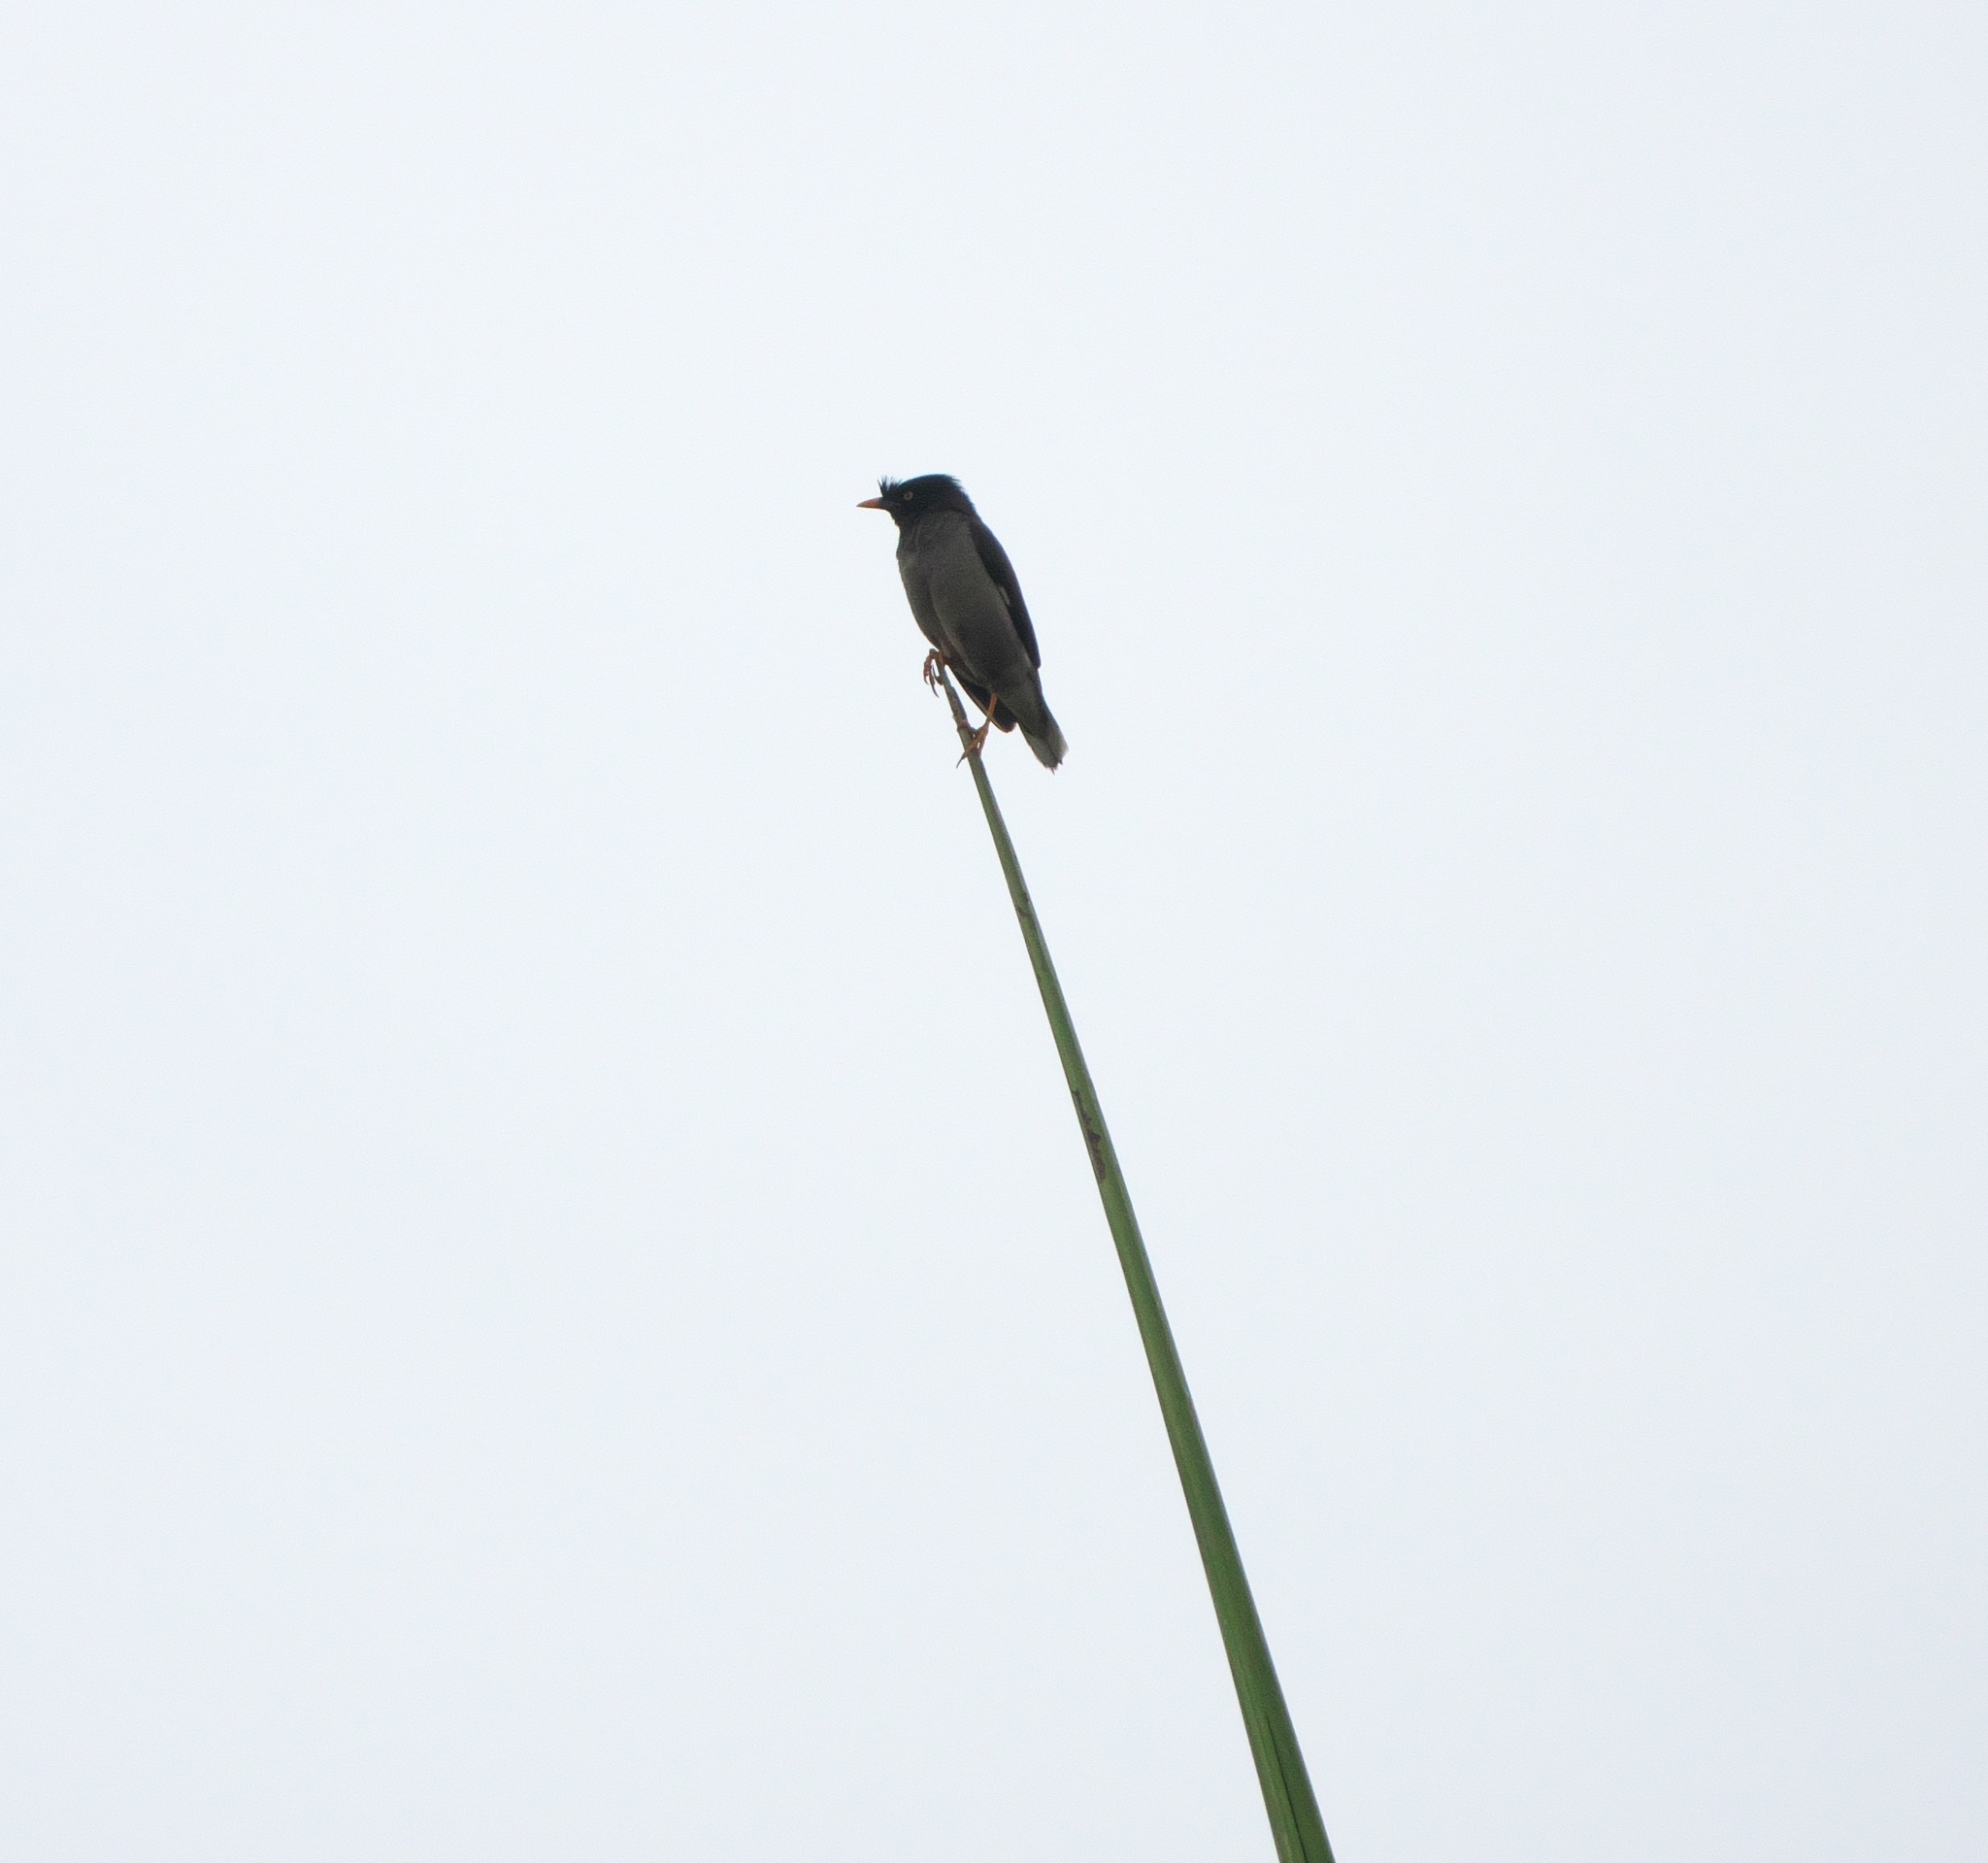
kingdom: Animalia
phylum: Chordata
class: Aves
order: Passeriformes
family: Sturnidae
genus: Acridotheres
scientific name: Acridotheres fuscus
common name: Jungle myna
